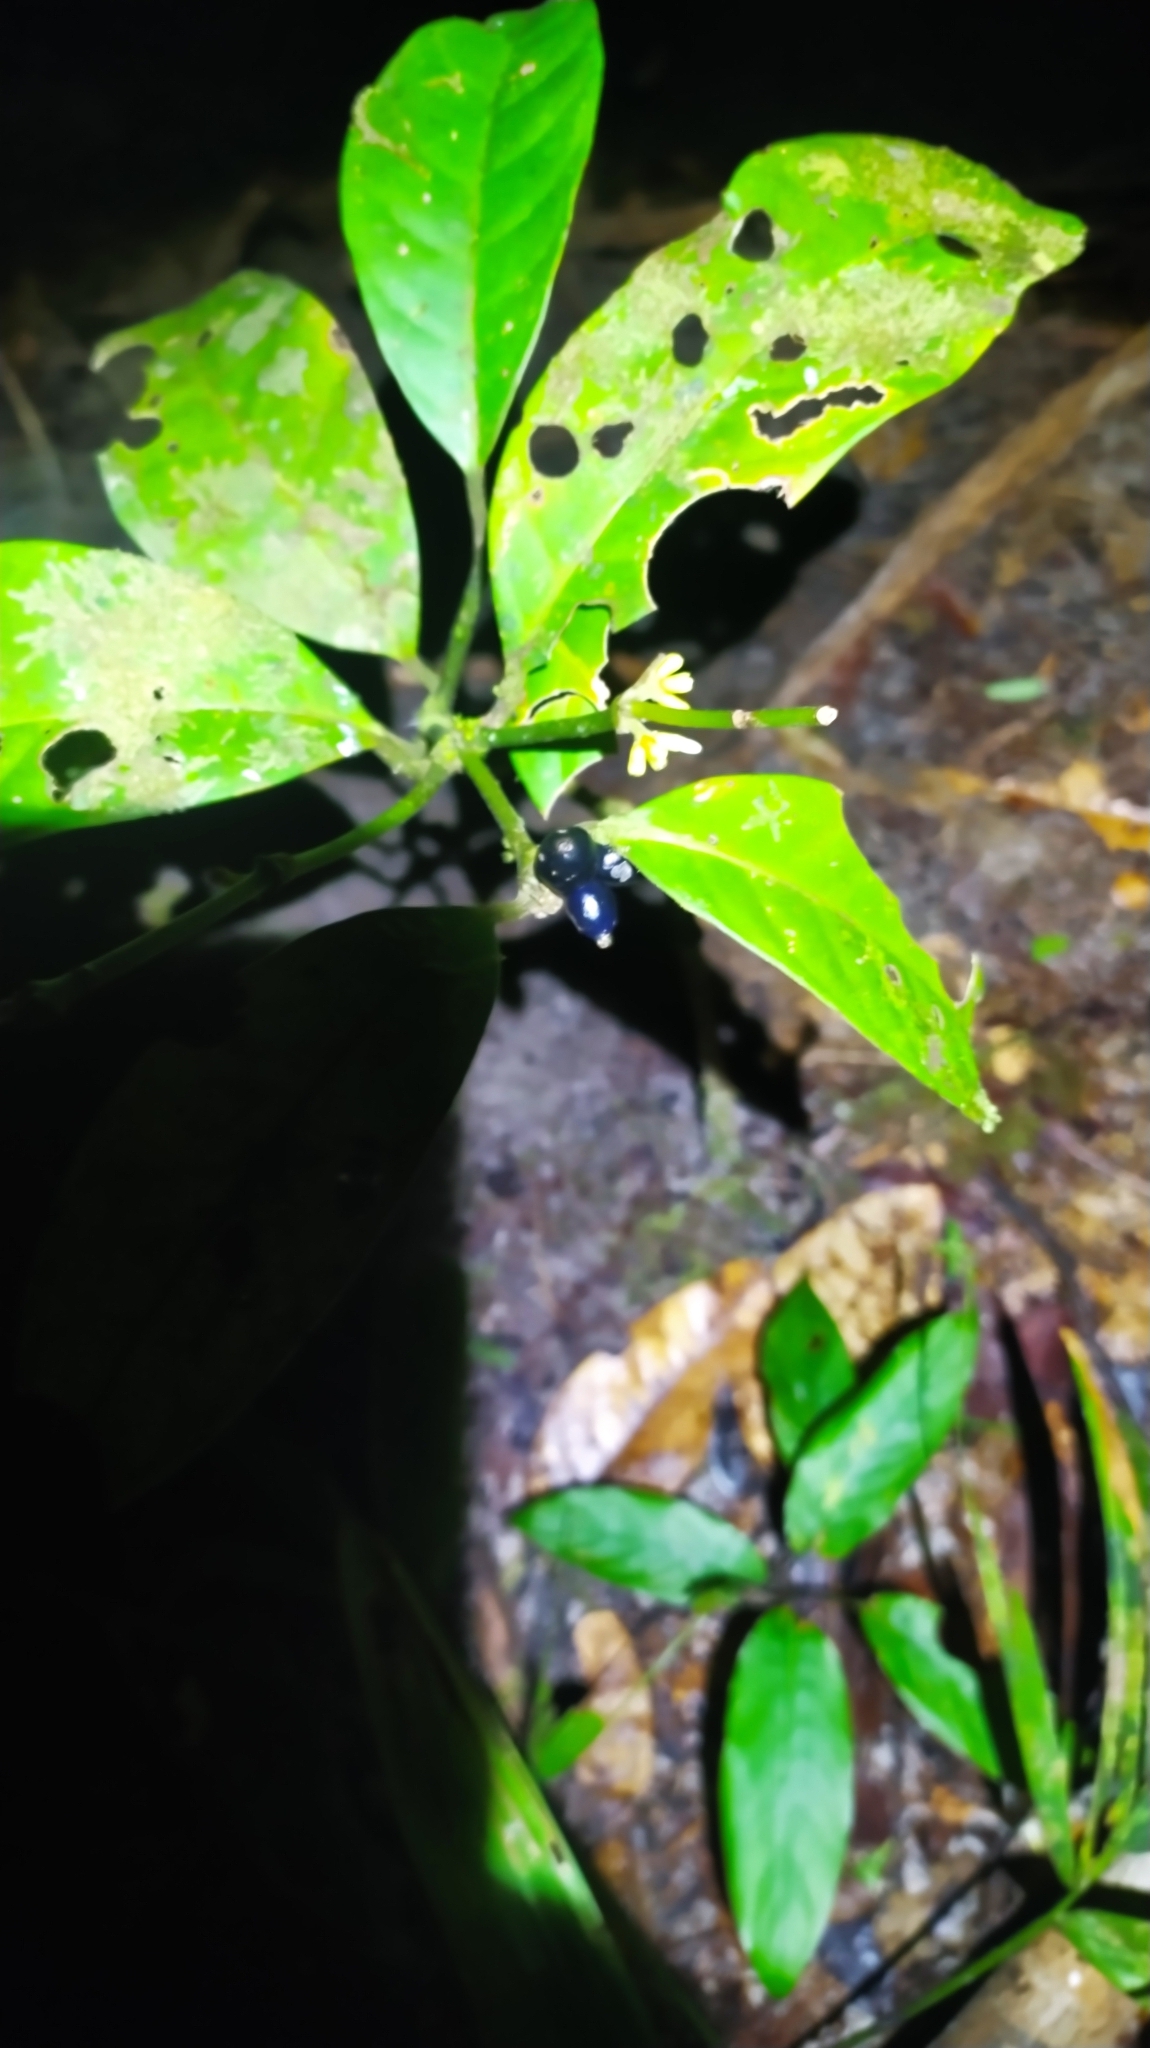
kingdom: Plantae
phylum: Tracheophyta
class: Magnoliopsida
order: Gentianales
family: Rubiaceae
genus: Ronabea
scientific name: Ronabea latifolia
